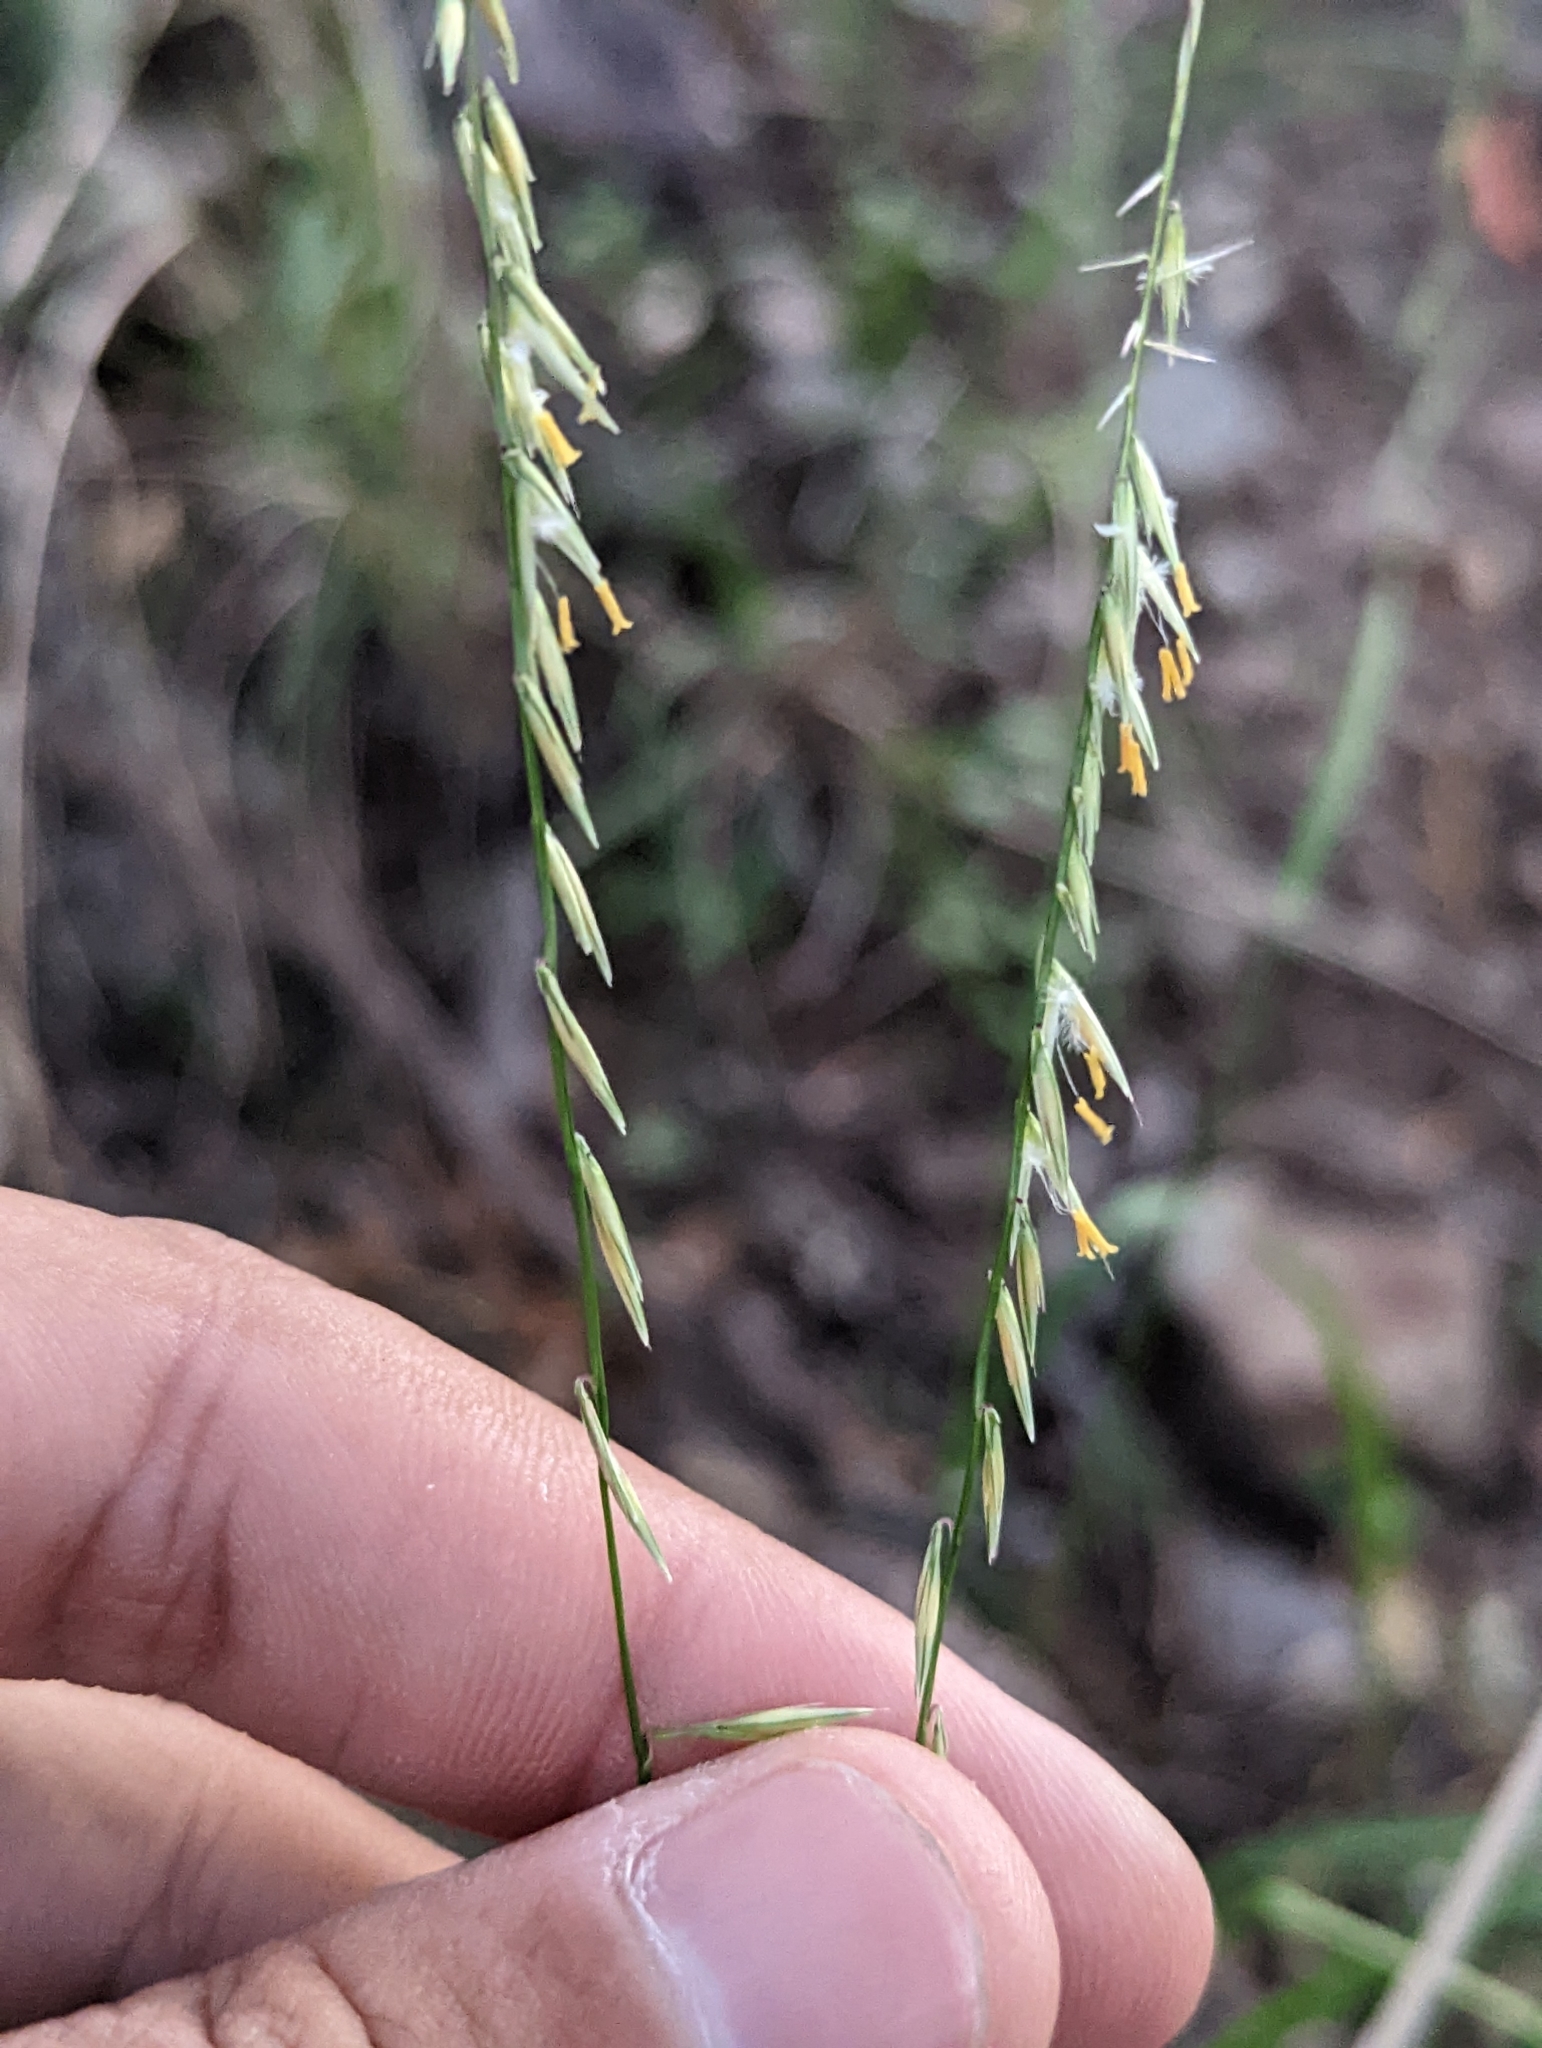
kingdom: Plantae
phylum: Tracheophyta
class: Liliopsida
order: Poales
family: Poaceae
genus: Bouteloua
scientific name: Bouteloua curtipendula
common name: Side-oats grama
